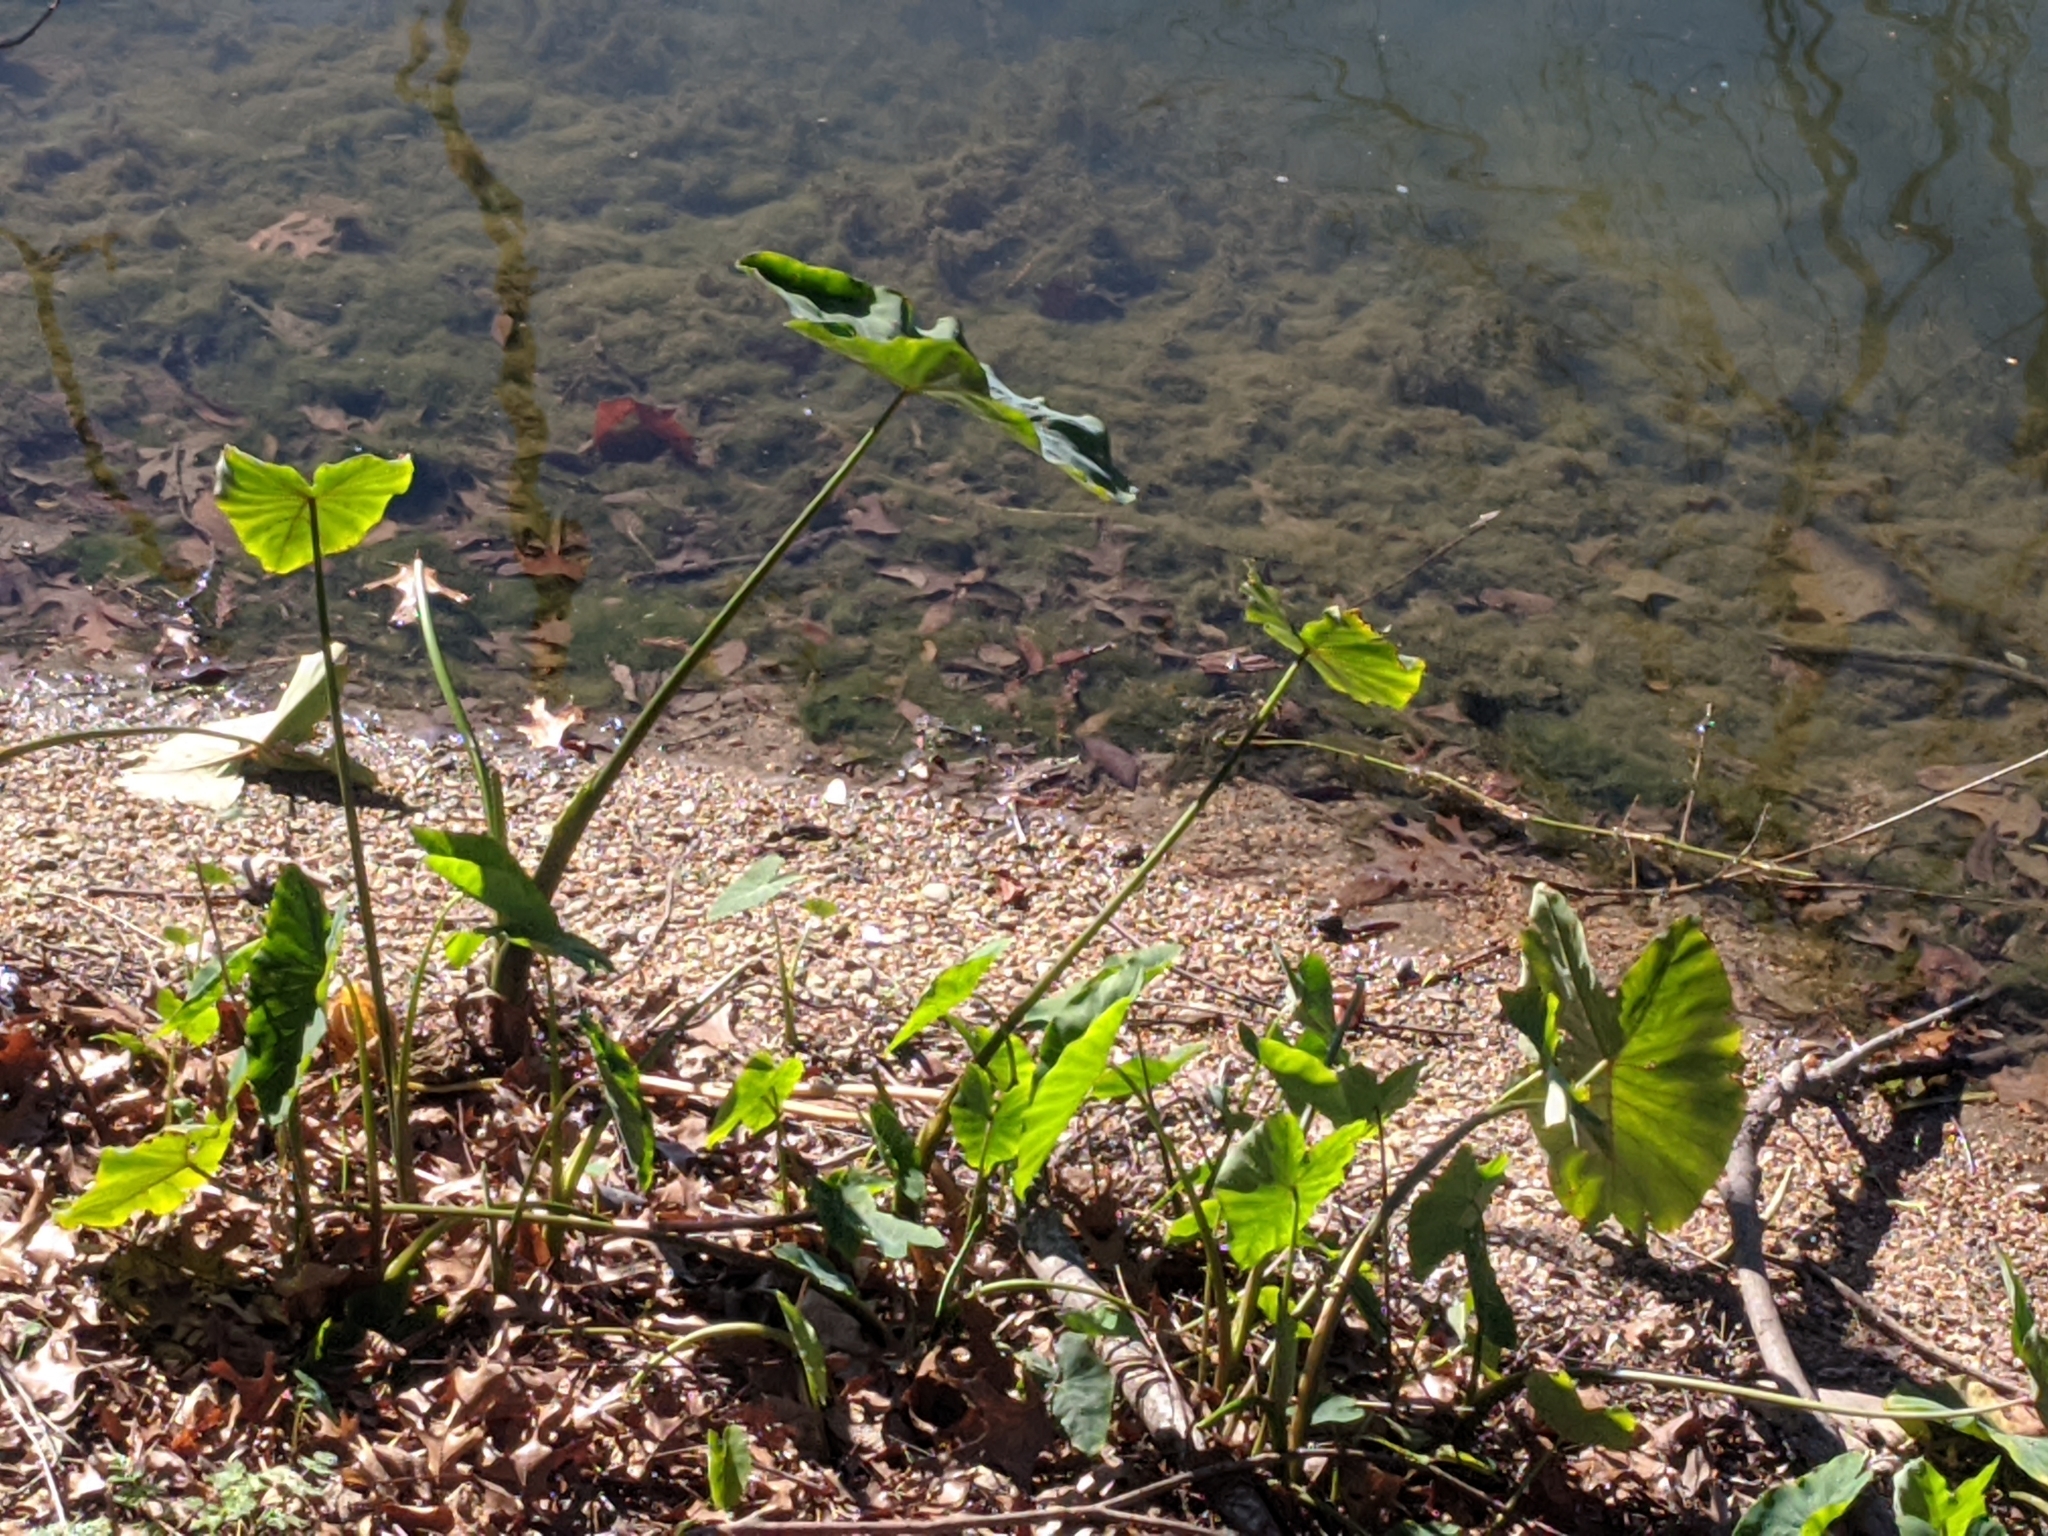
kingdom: Plantae
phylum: Tracheophyta
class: Liliopsida
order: Alismatales
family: Araceae
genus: Colocasia
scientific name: Colocasia esculenta
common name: Taro
